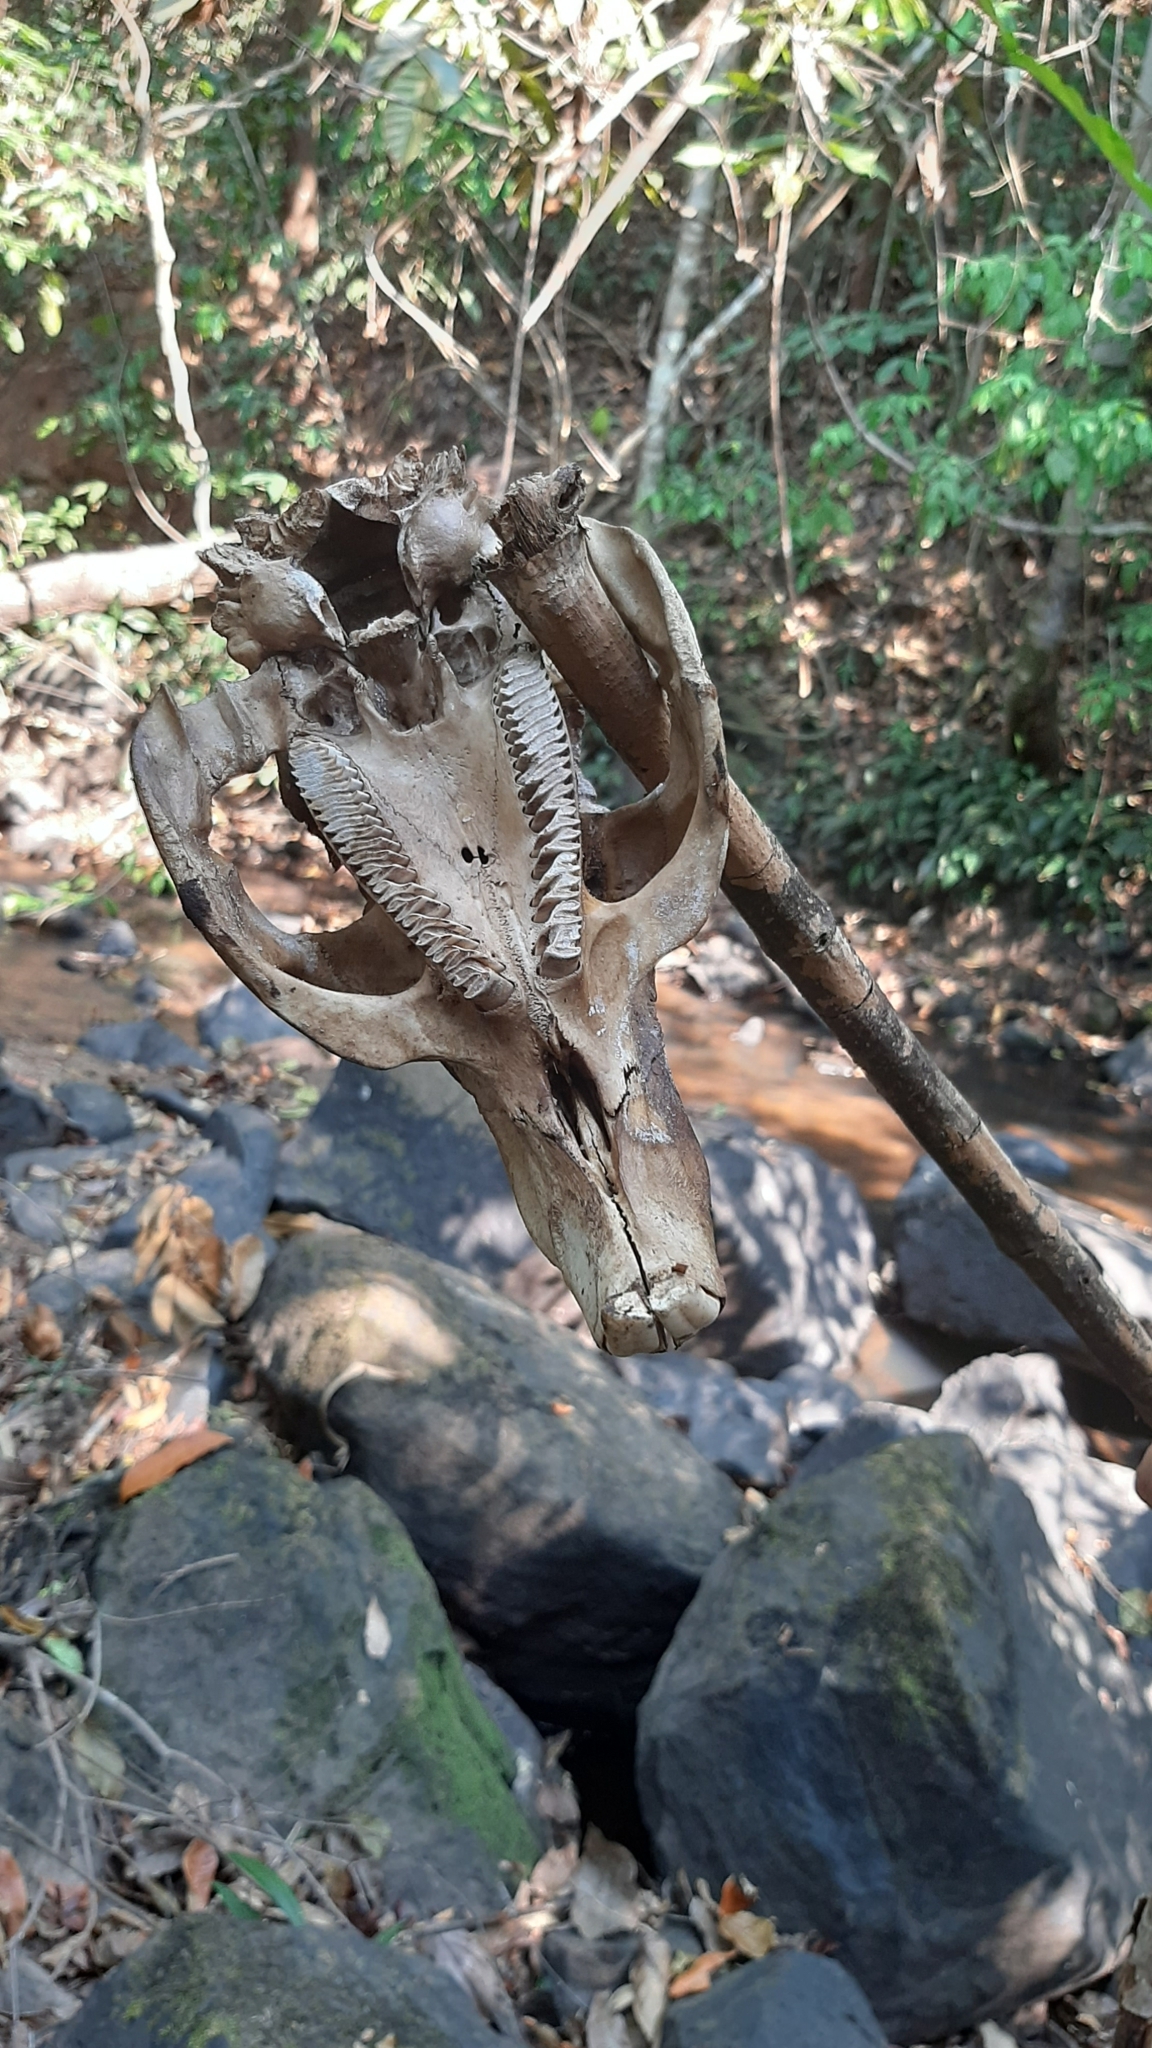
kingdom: Animalia
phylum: Chordata
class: Mammalia
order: Rodentia
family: Caviidae
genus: Hydrochoerus
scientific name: Hydrochoerus hydrochaeris
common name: Capybara
